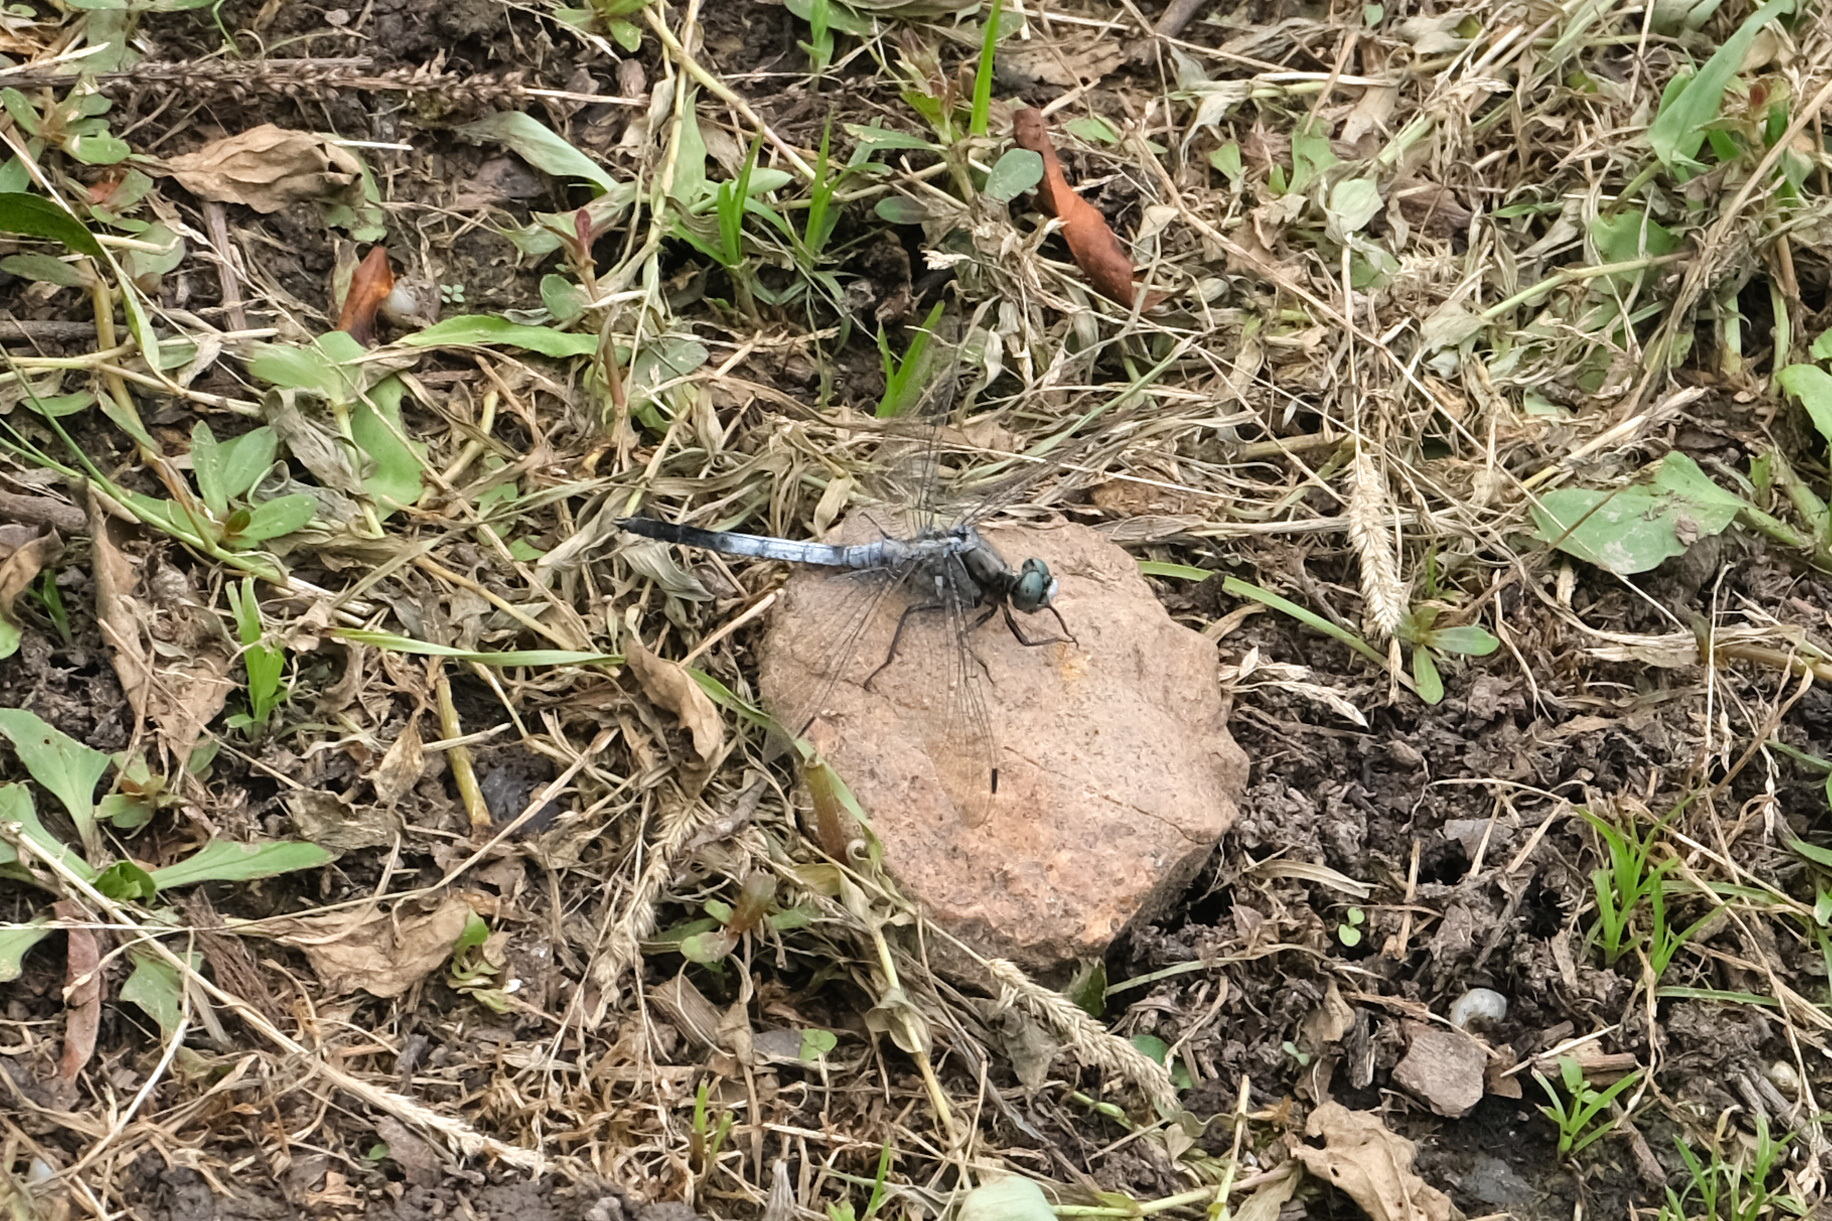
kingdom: Animalia
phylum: Arthropoda
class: Insecta
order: Odonata
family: Libellulidae
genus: Orthetrum
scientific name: Orthetrum albistylum
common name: White-tailed skimmer
